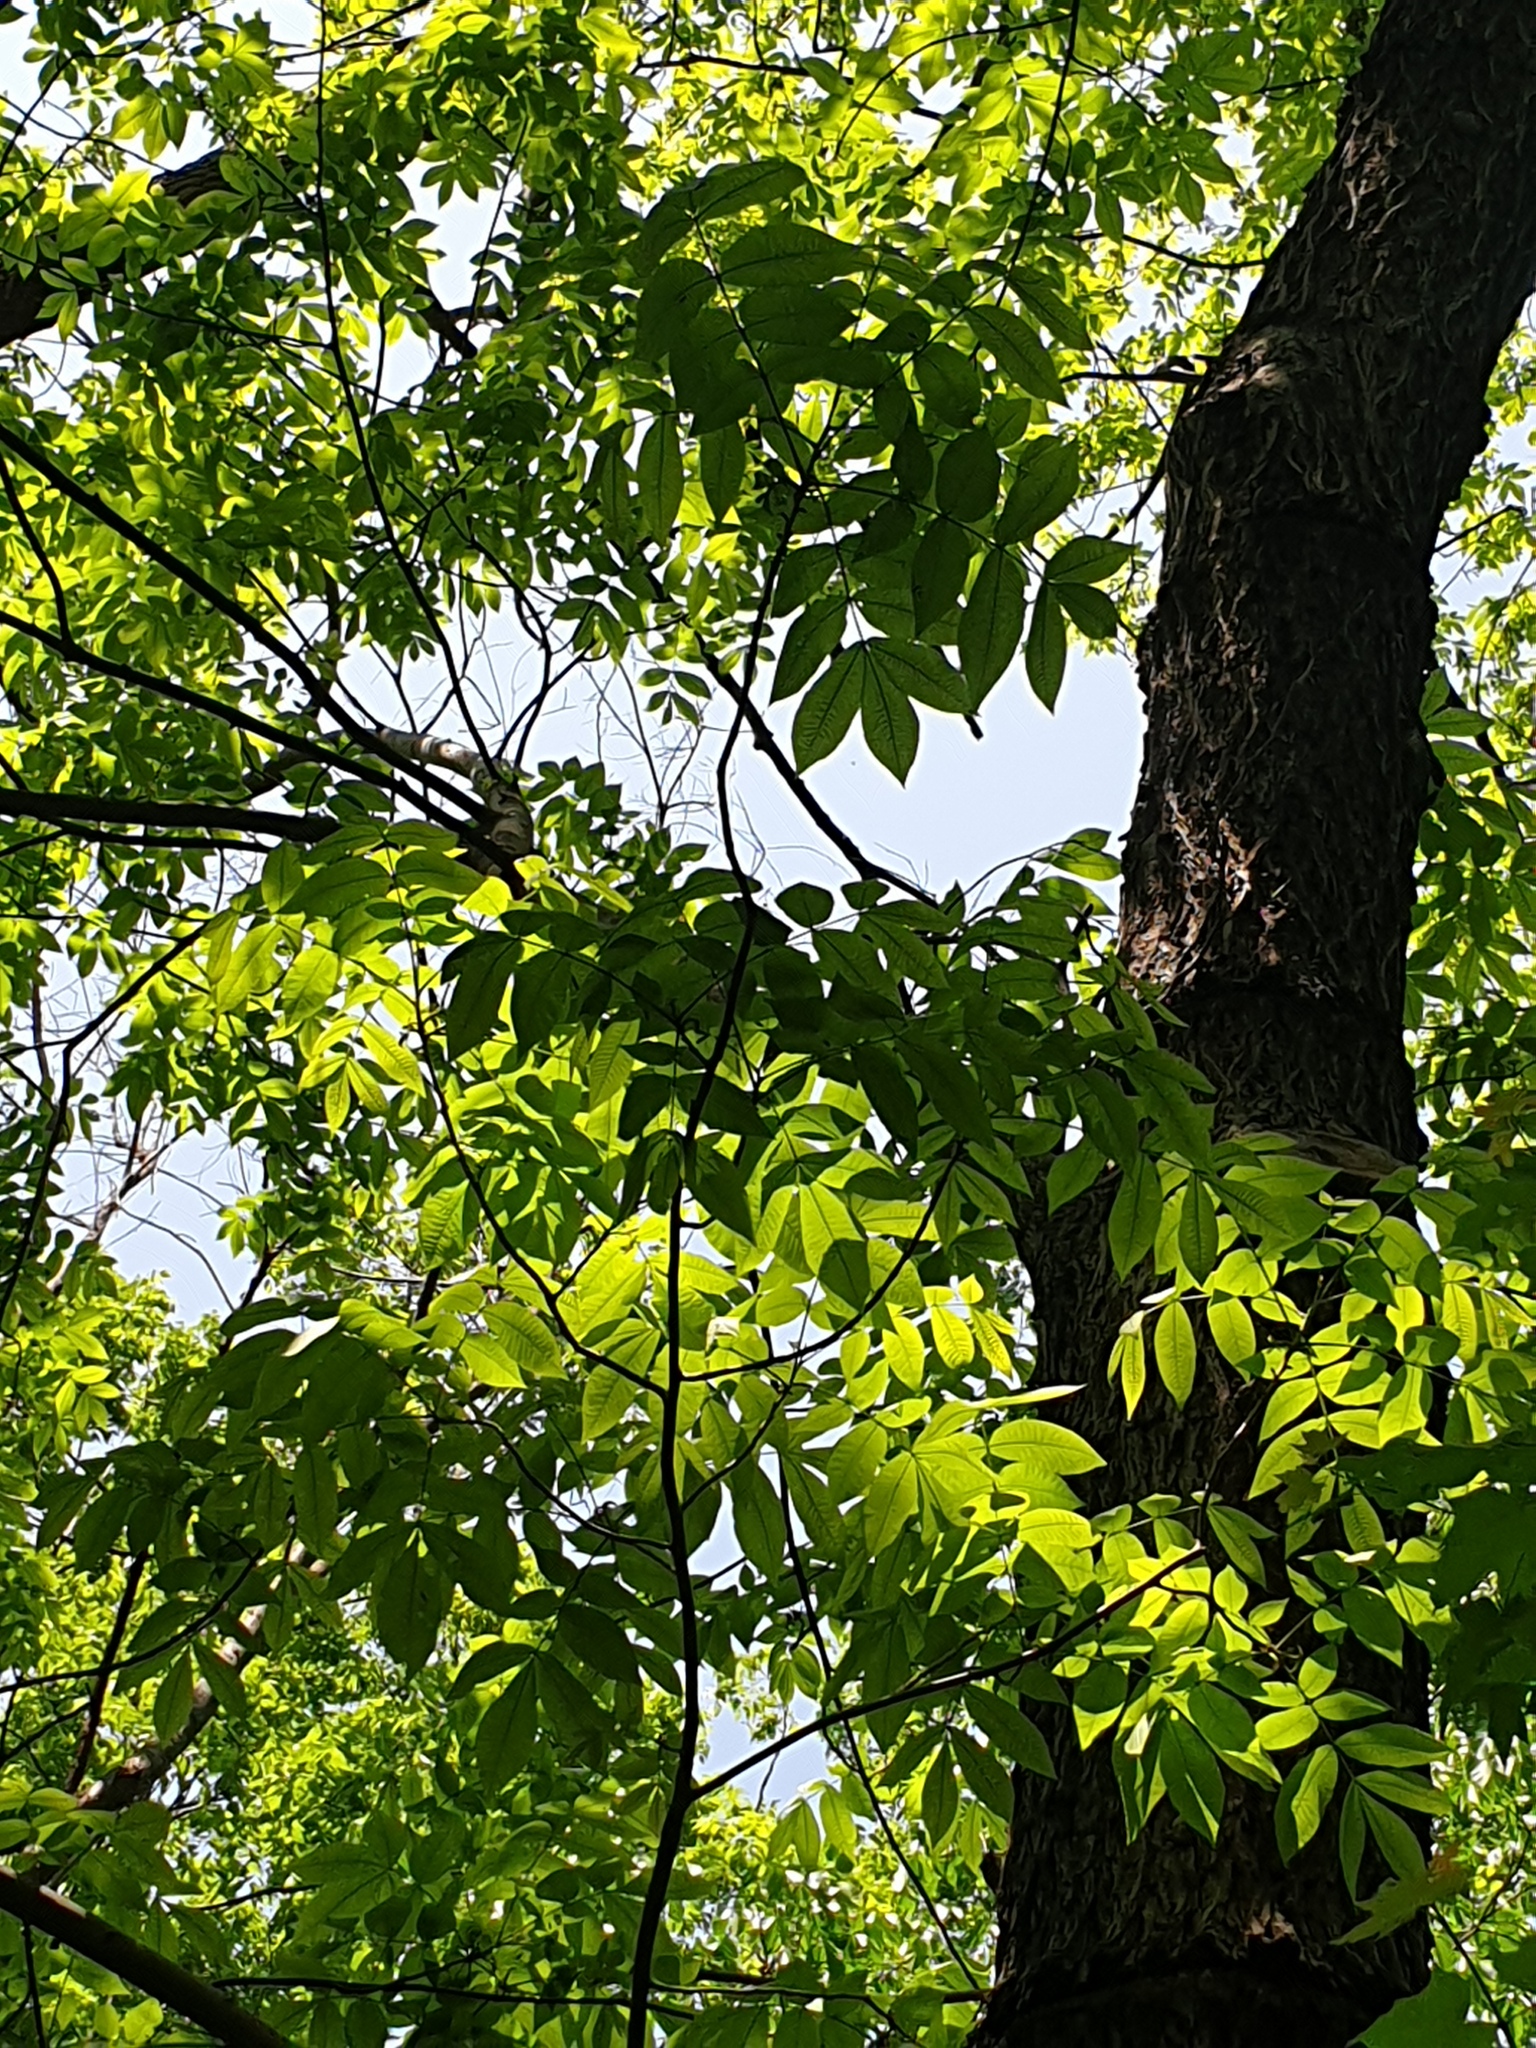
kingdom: Plantae
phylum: Tracheophyta
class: Magnoliopsida
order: Fagales
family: Juglandaceae
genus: Carya
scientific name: Carya cordiformis
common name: Bitternut hickory
